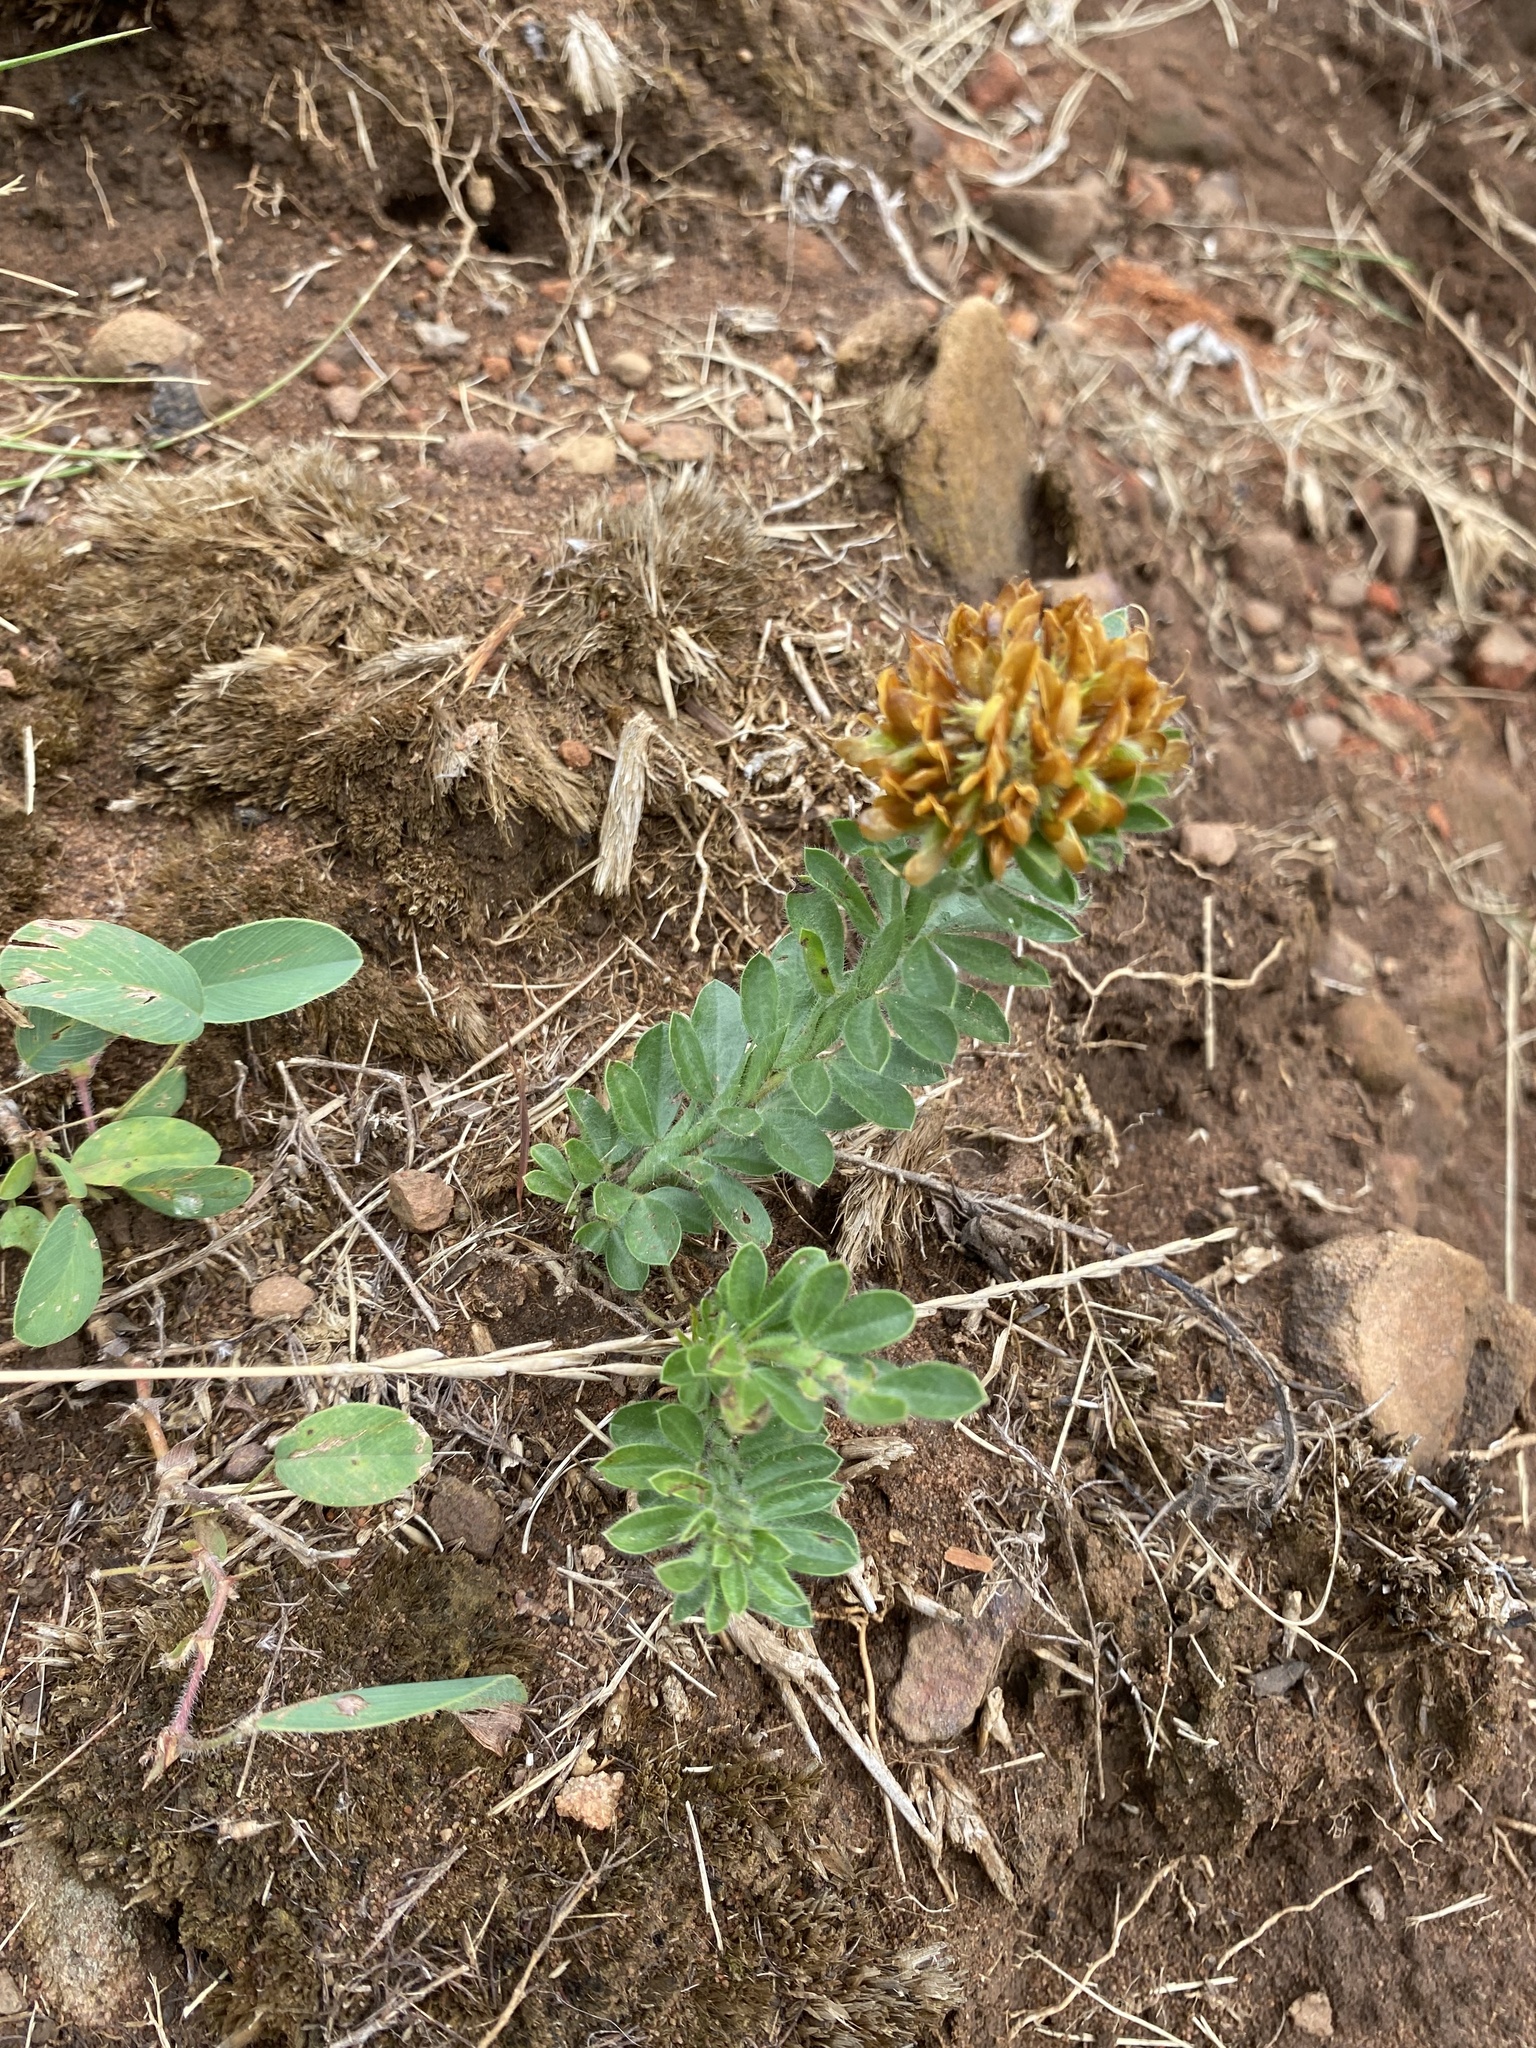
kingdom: Plantae
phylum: Tracheophyta
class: Magnoliopsida
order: Fabales
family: Fabaceae
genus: Leobordea
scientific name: Leobordea pulchra
